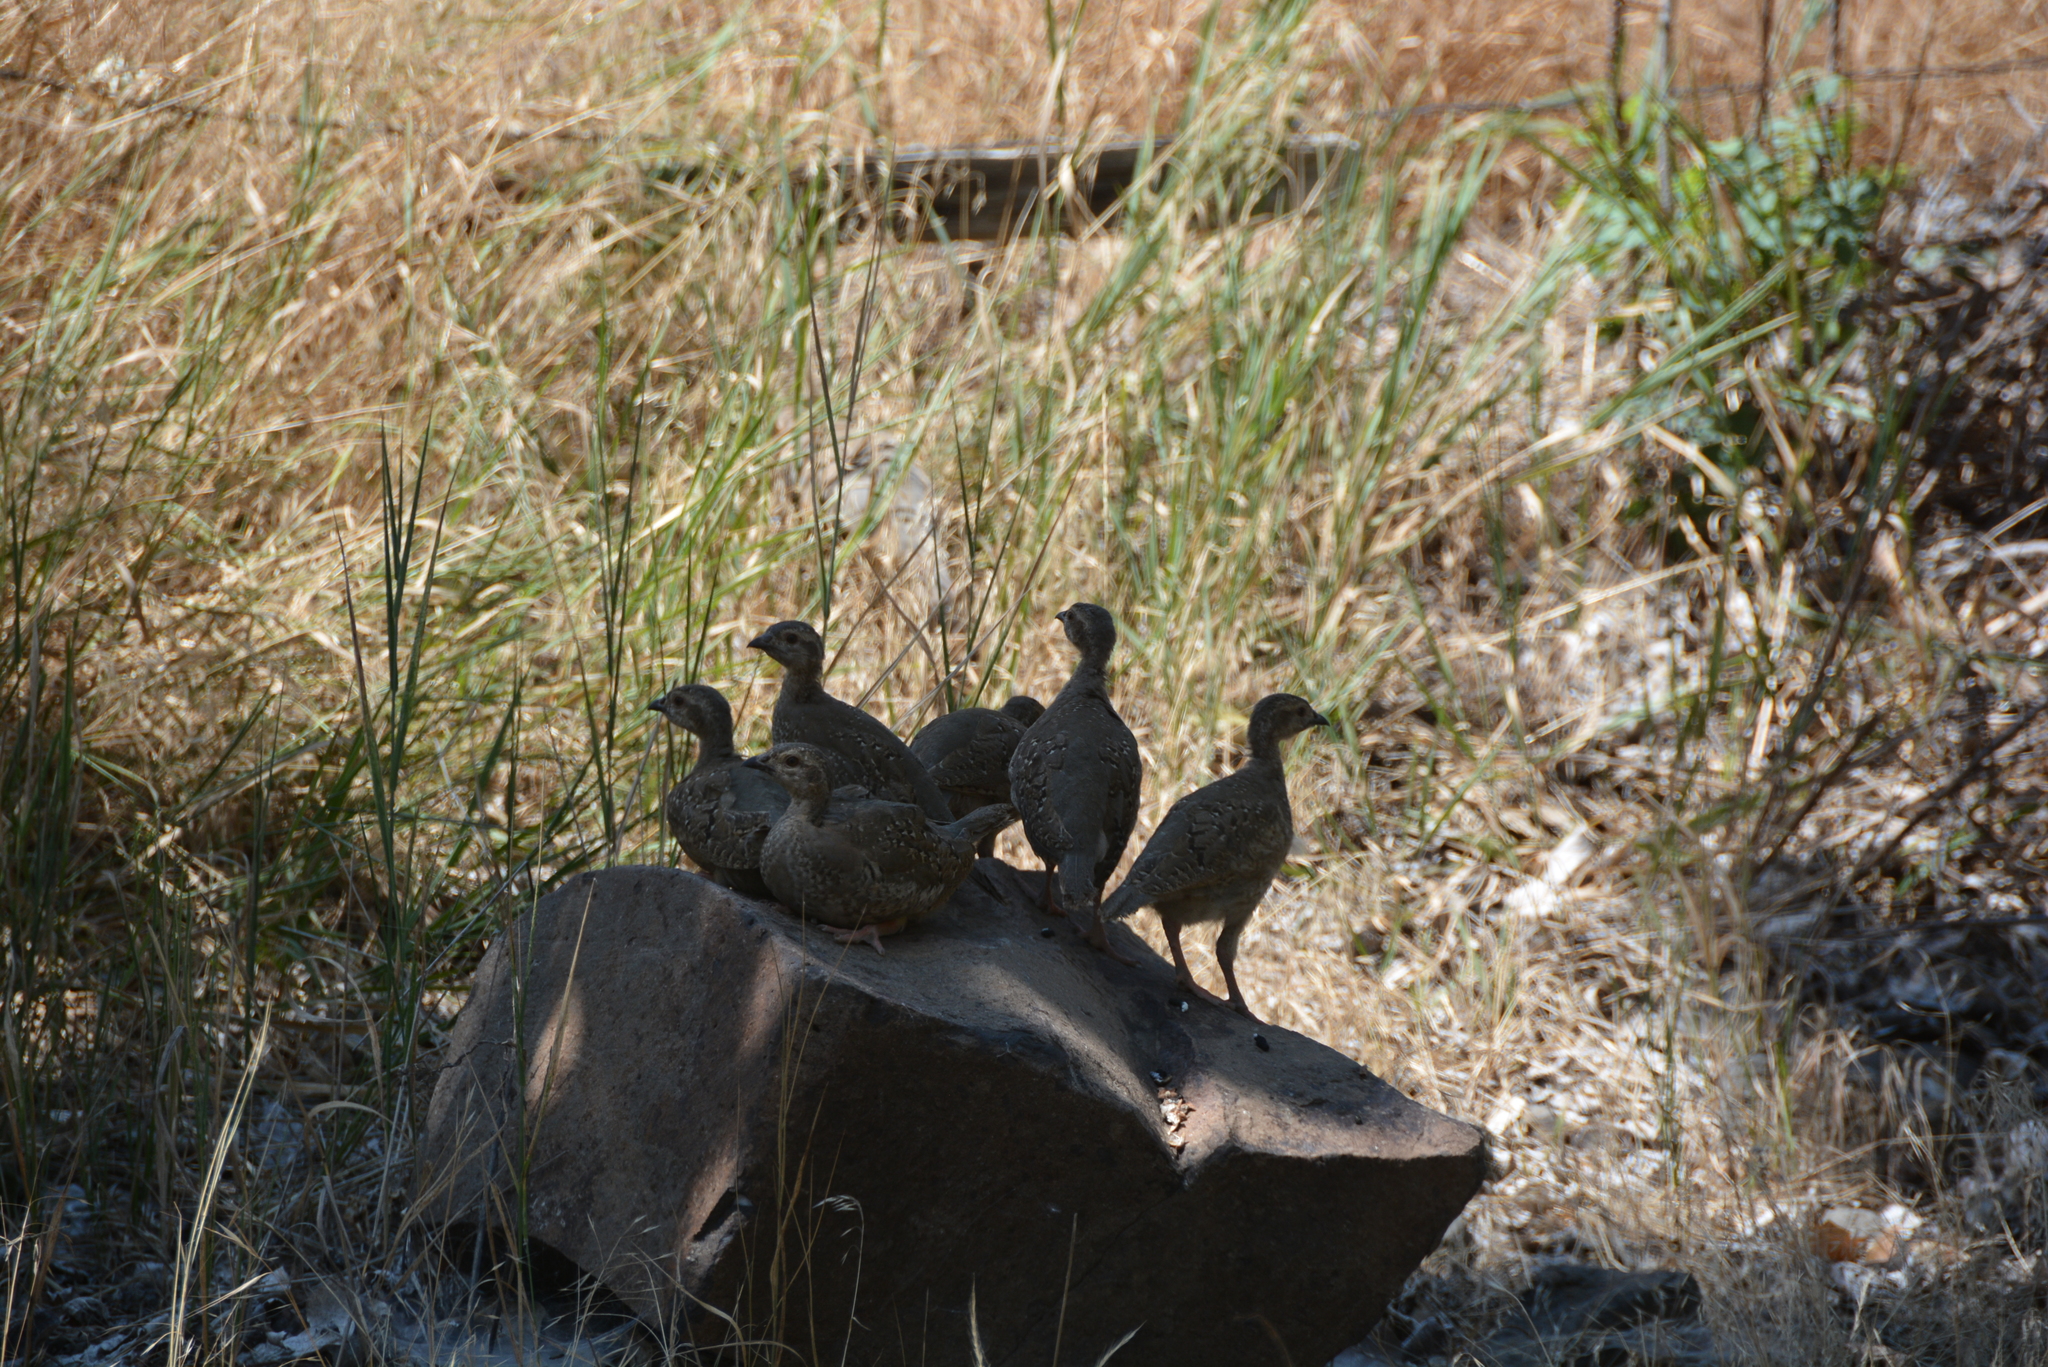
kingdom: Animalia
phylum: Chordata
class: Aves
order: Galliformes
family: Phasianidae
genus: Alectoris
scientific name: Alectoris chukar
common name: Chukar
